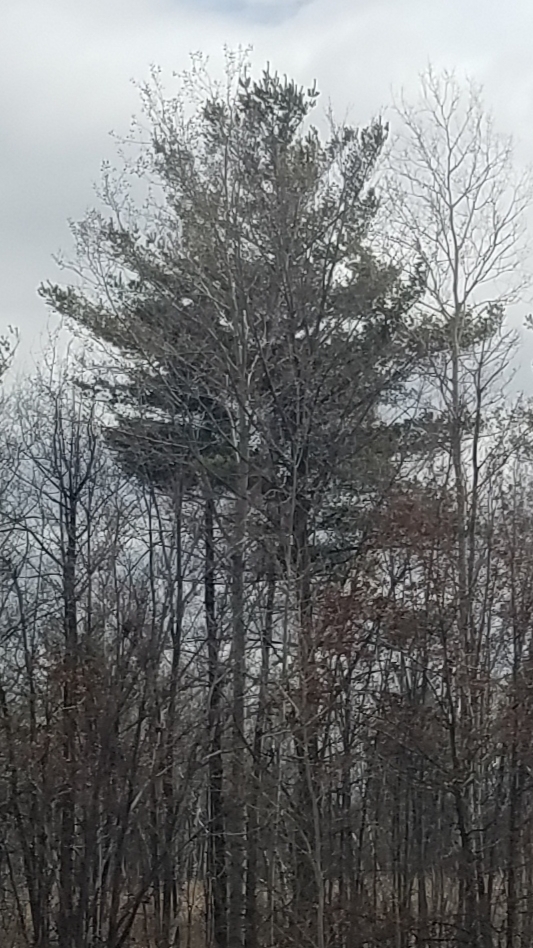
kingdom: Plantae
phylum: Tracheophyta
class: Pinopsida
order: Pinales
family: Pinaceae
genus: Pinus
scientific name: Pinus strobus
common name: Weymouth pine
